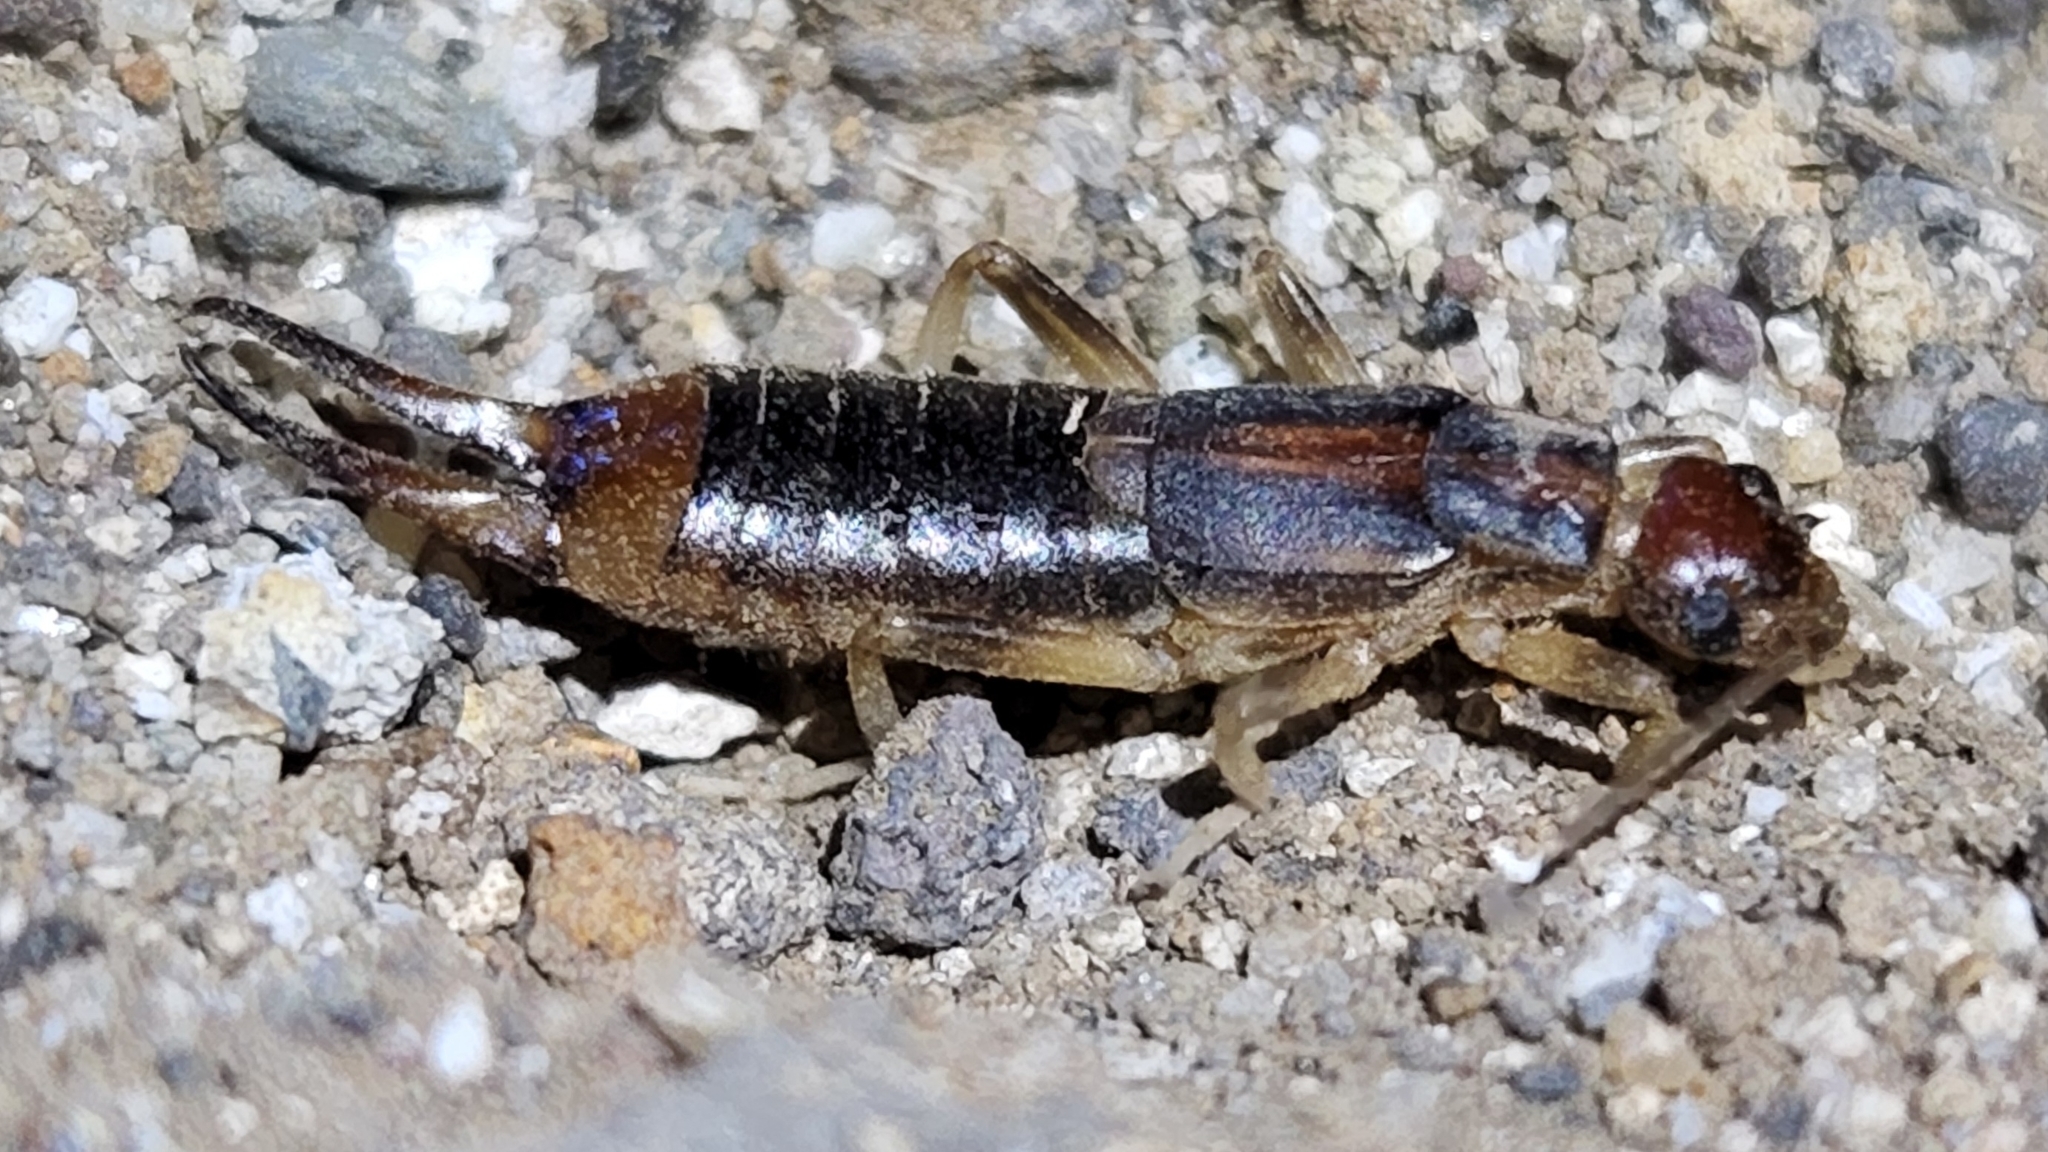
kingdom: Animalia
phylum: Arthropoda
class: Insecta
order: Dermaptera
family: Labiduridae
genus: Labidura
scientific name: Labidura riparia
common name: Striped earwig
